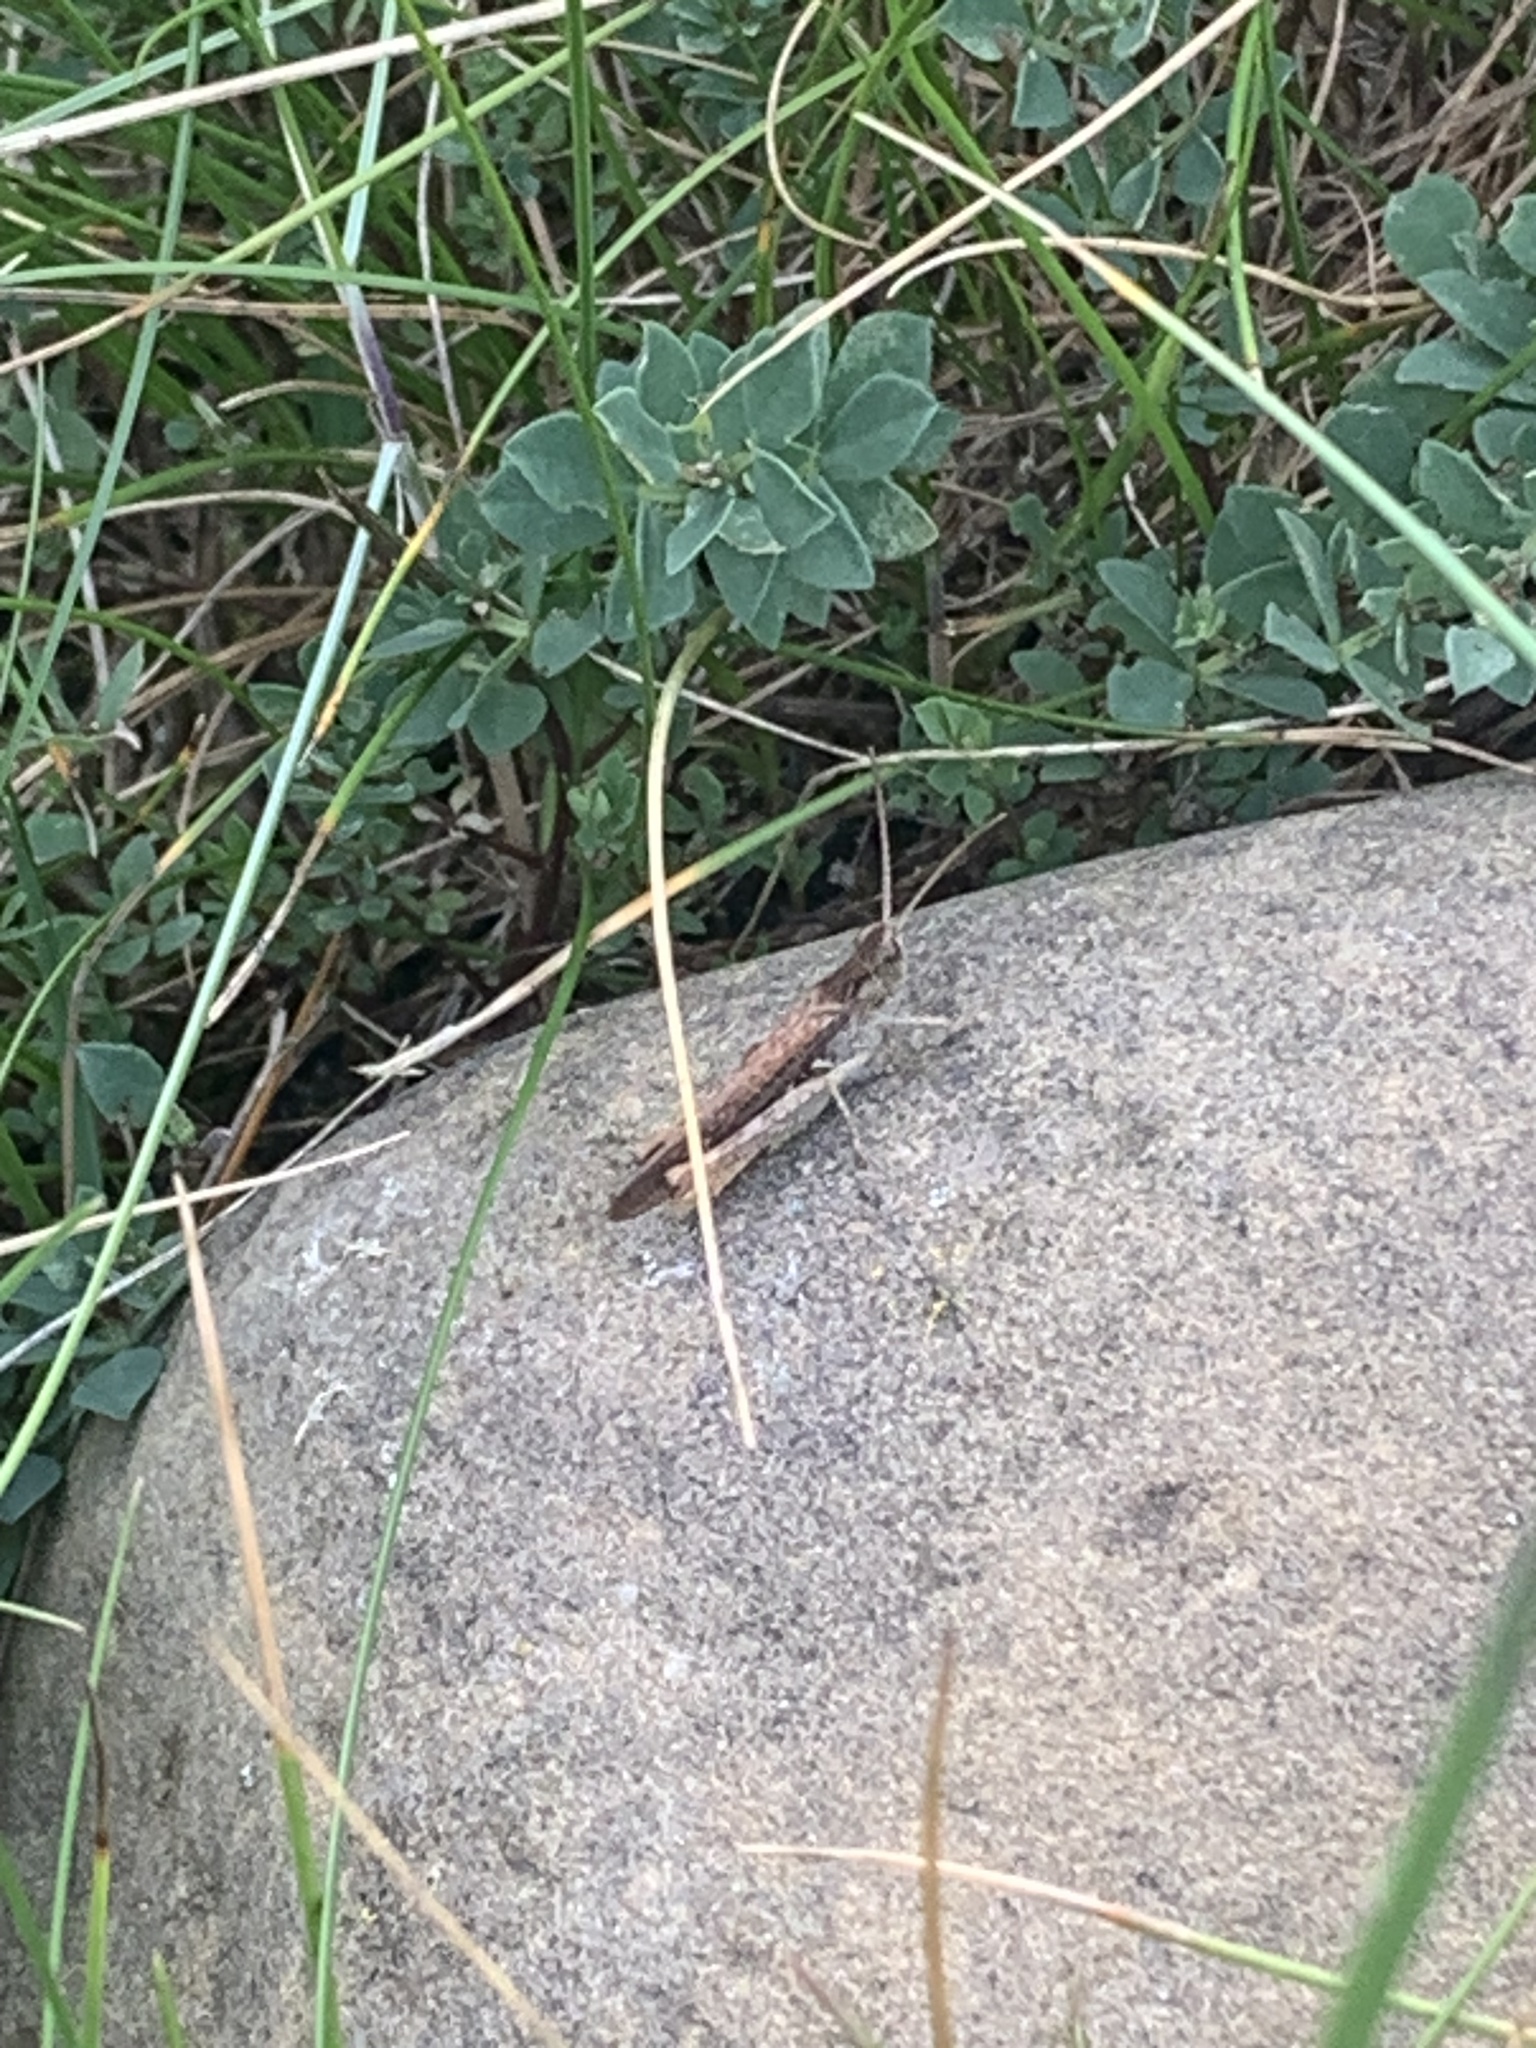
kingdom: Animalia
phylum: Arthropoda
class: Insecta
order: Orthoptera
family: Acrididae
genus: Chorthippus
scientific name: Chorthippus brunneus
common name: Field grasshopper
